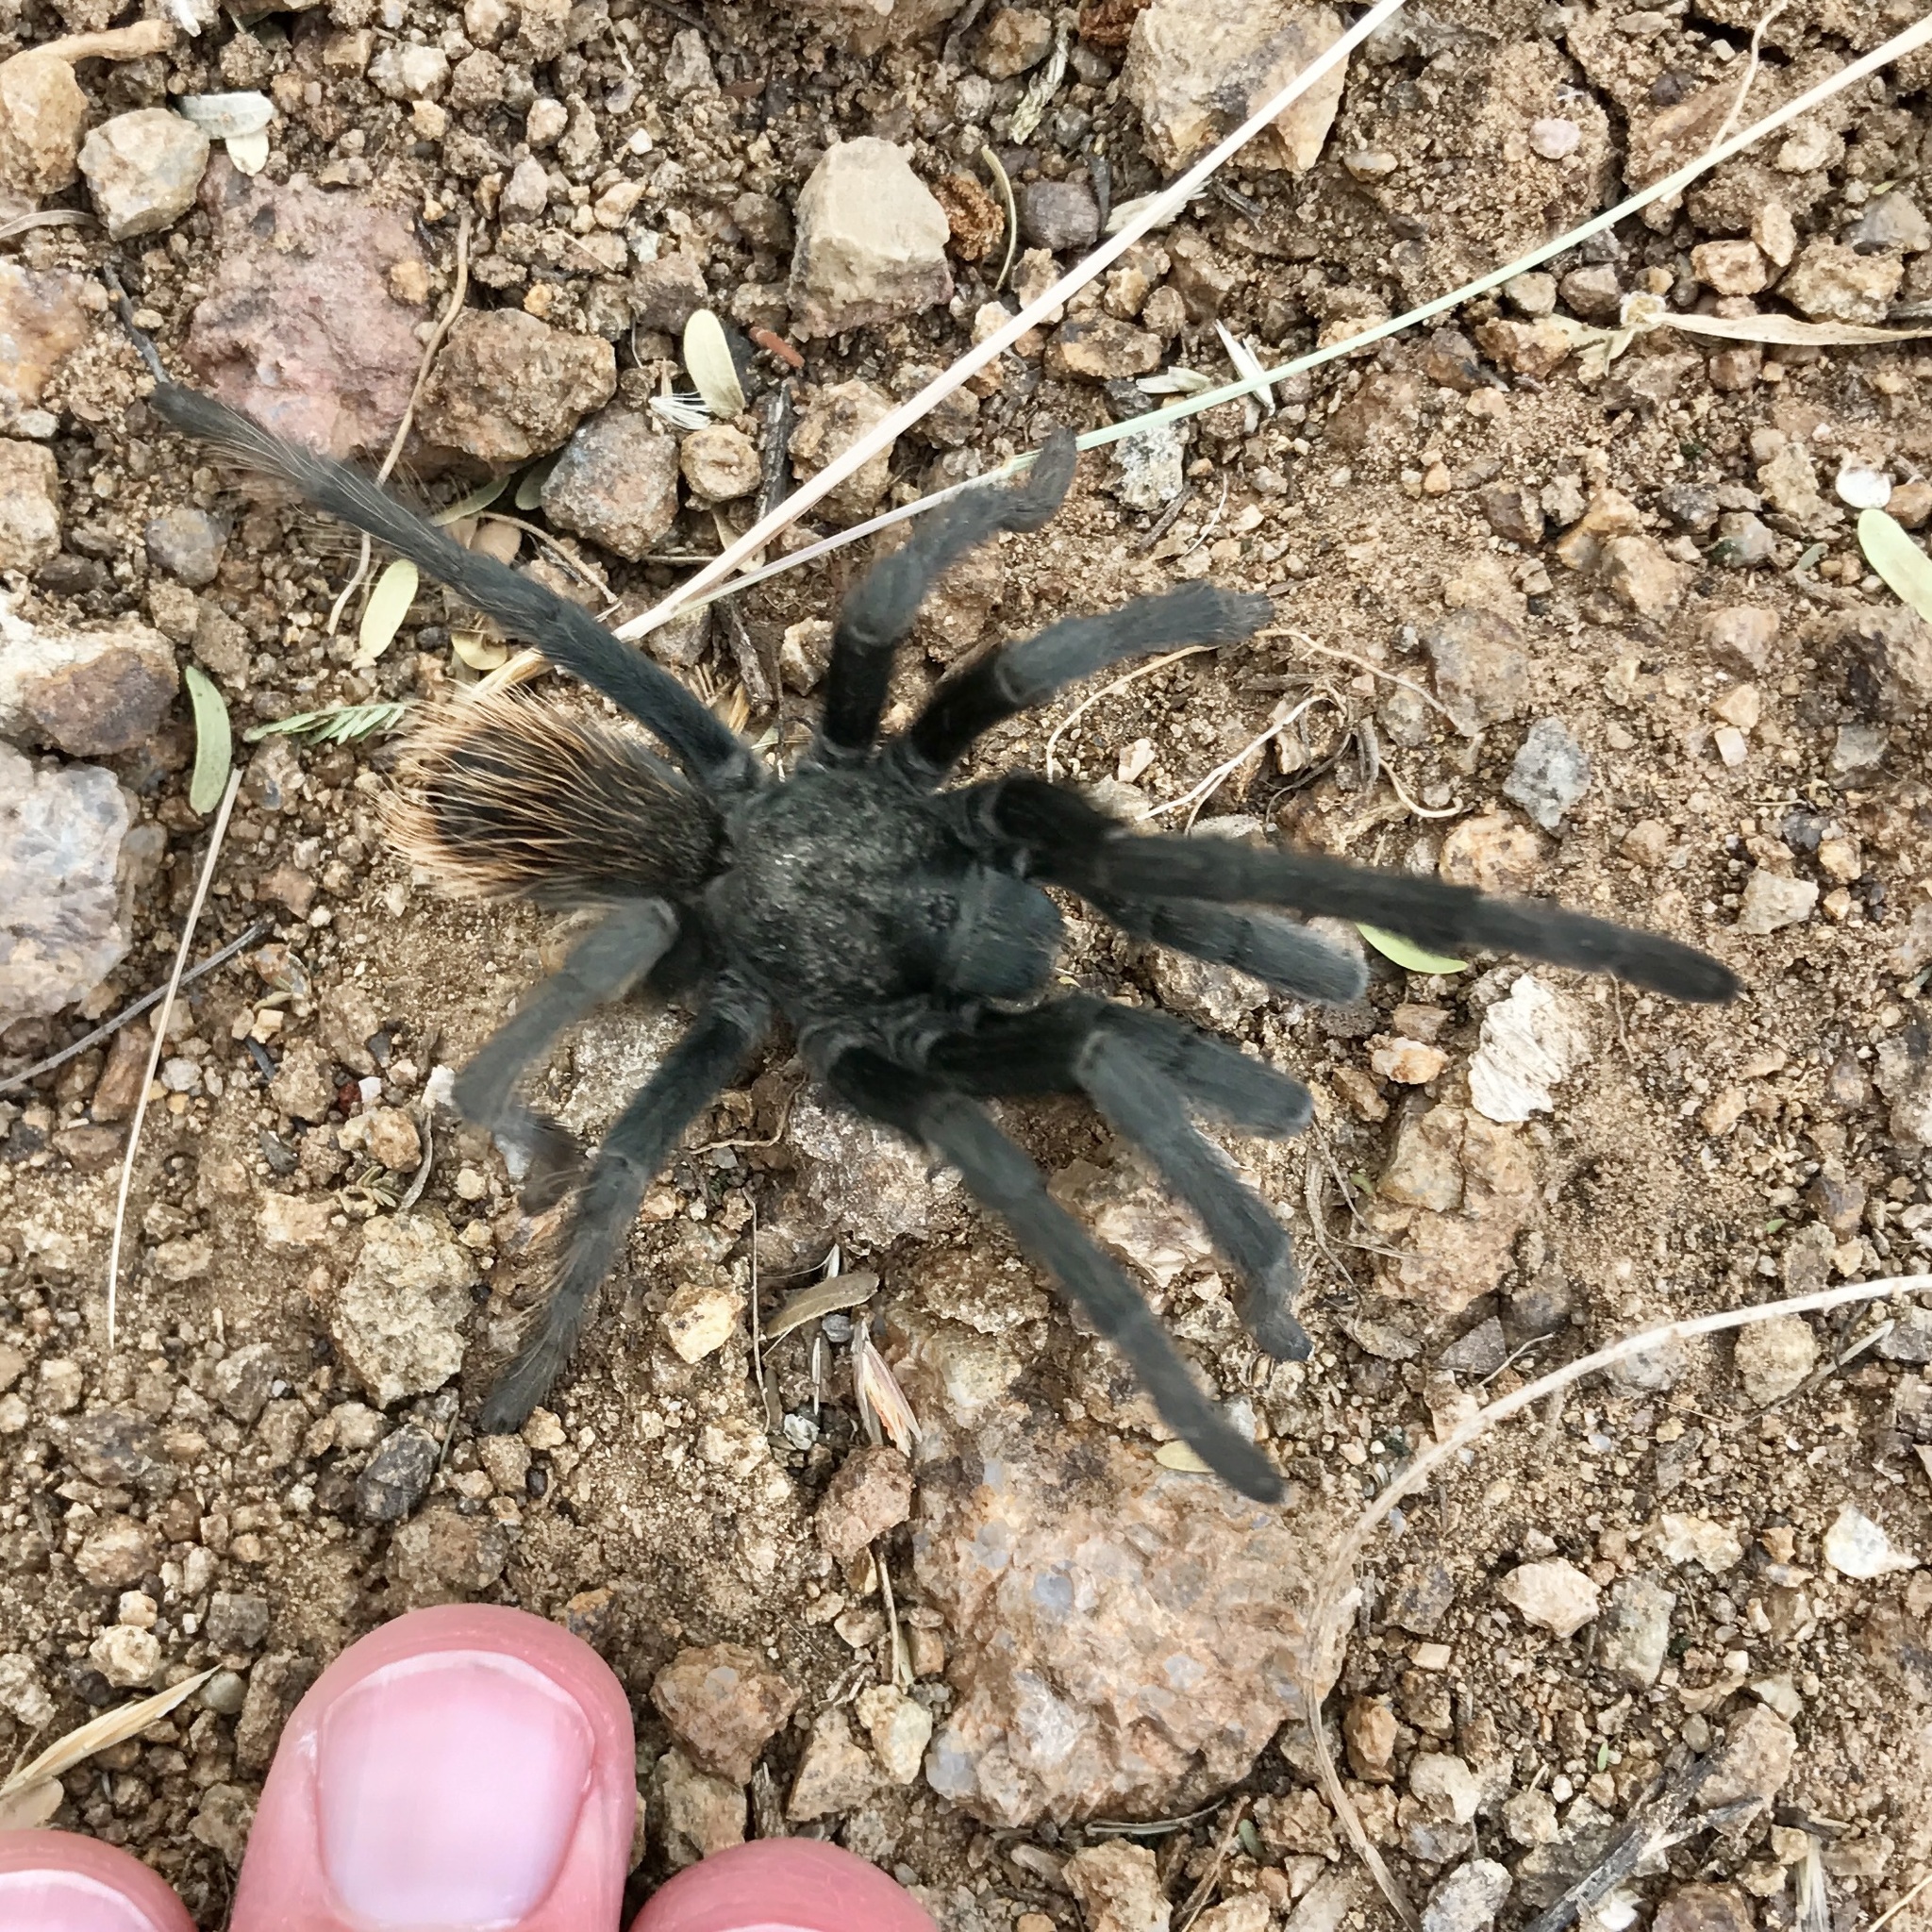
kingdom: Animalia
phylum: Arthropoda
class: Arachnida
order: Araneae
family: Theraphosidae
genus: Aphonopelma
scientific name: Aphonopelma vorhiesi
